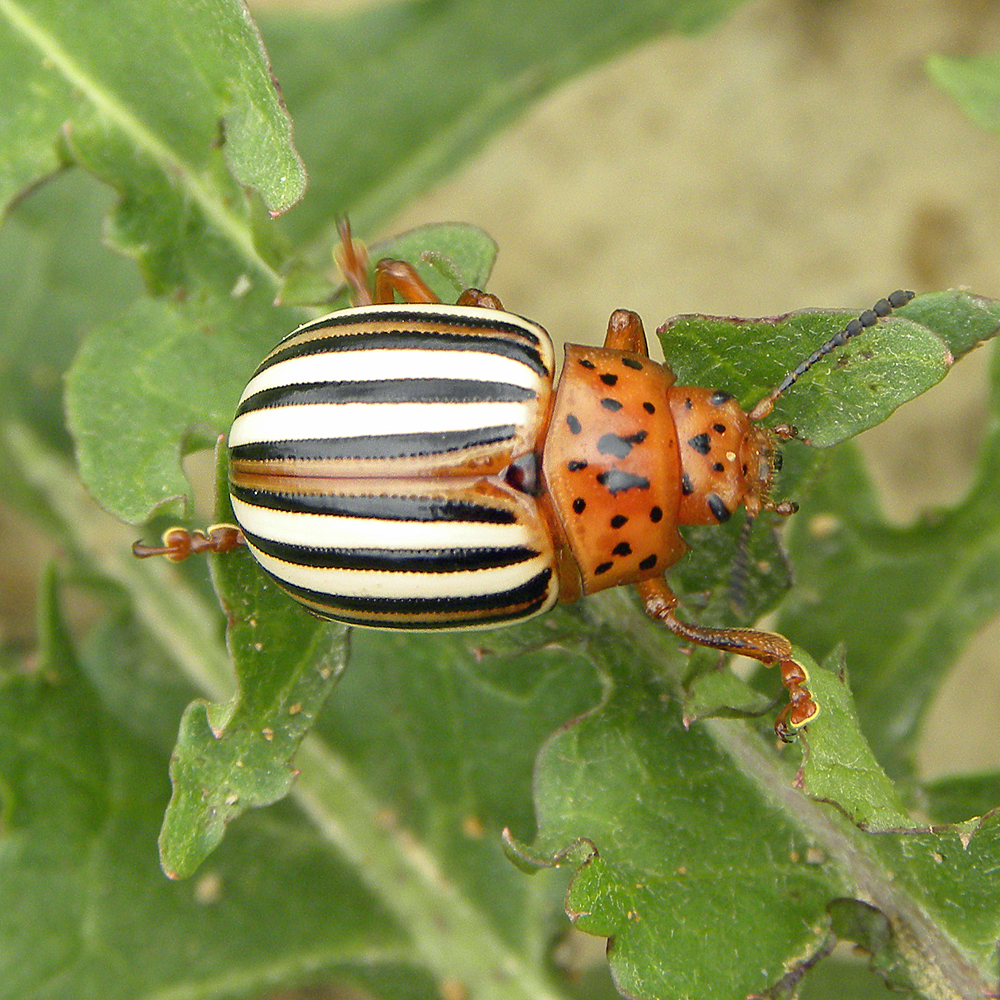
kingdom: Animalia
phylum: Arthropoda
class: Insecta
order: Coleoptera
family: Chrysomelidae
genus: Leptinotarsa
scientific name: Leptinotarsa juncta
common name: False potato beetle
